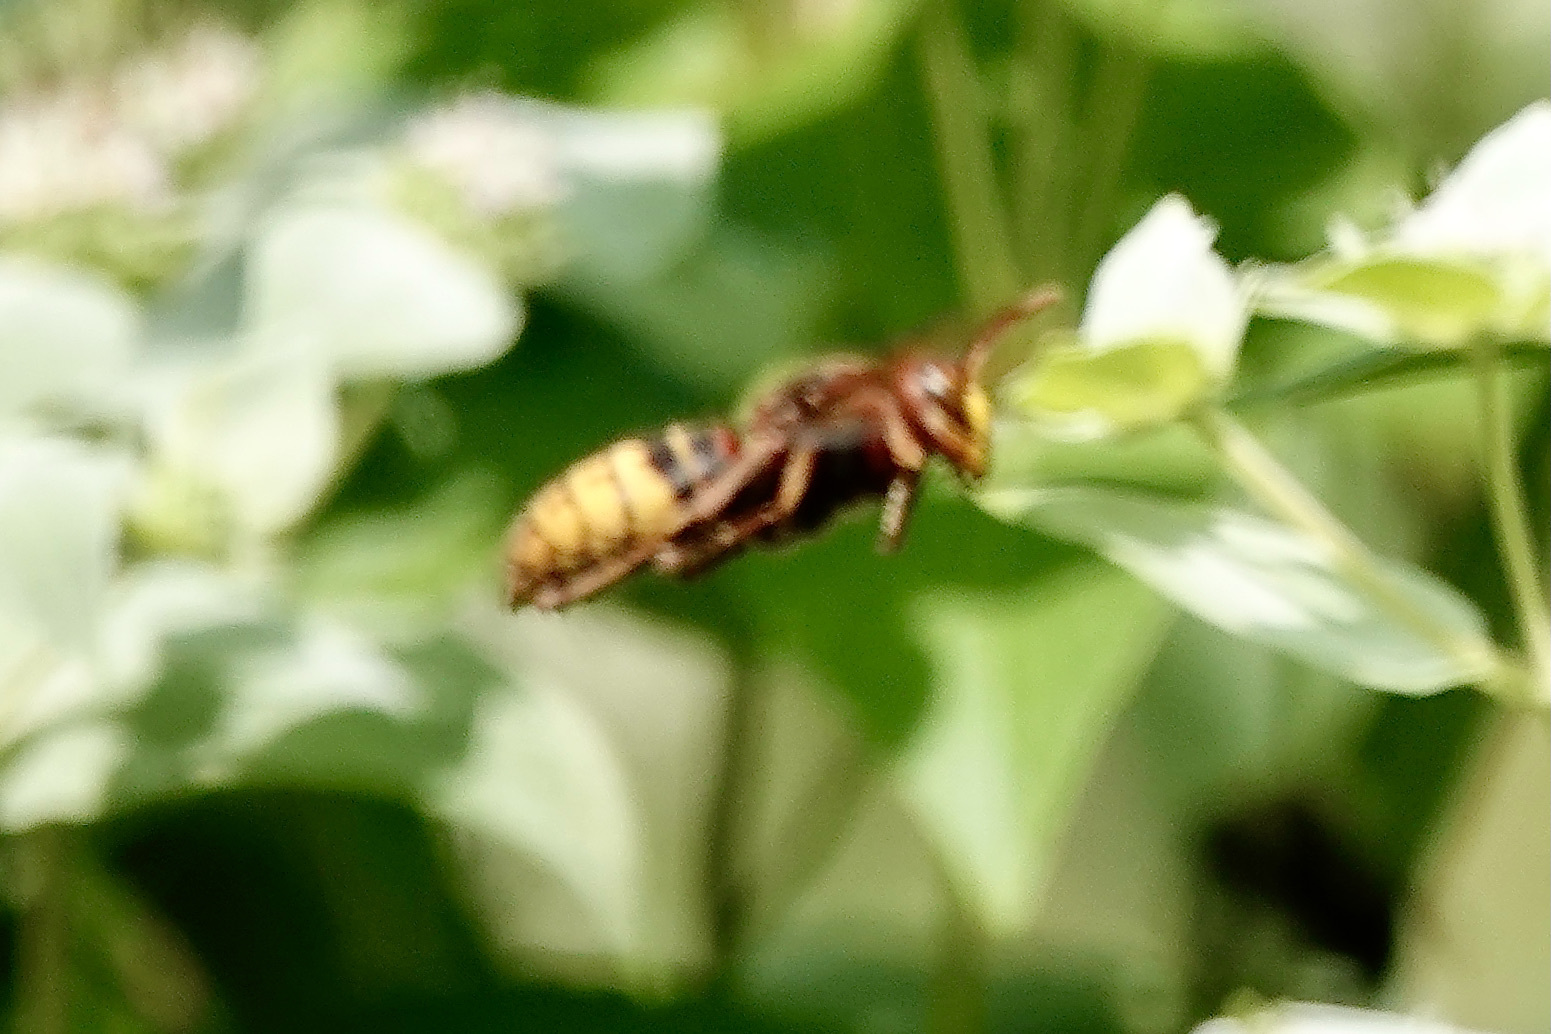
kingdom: Animalia
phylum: Arthropoda
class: Insecta
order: Hymenoptera
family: Vespidae
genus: Vespa
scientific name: Vespa crabro
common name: Hornet
